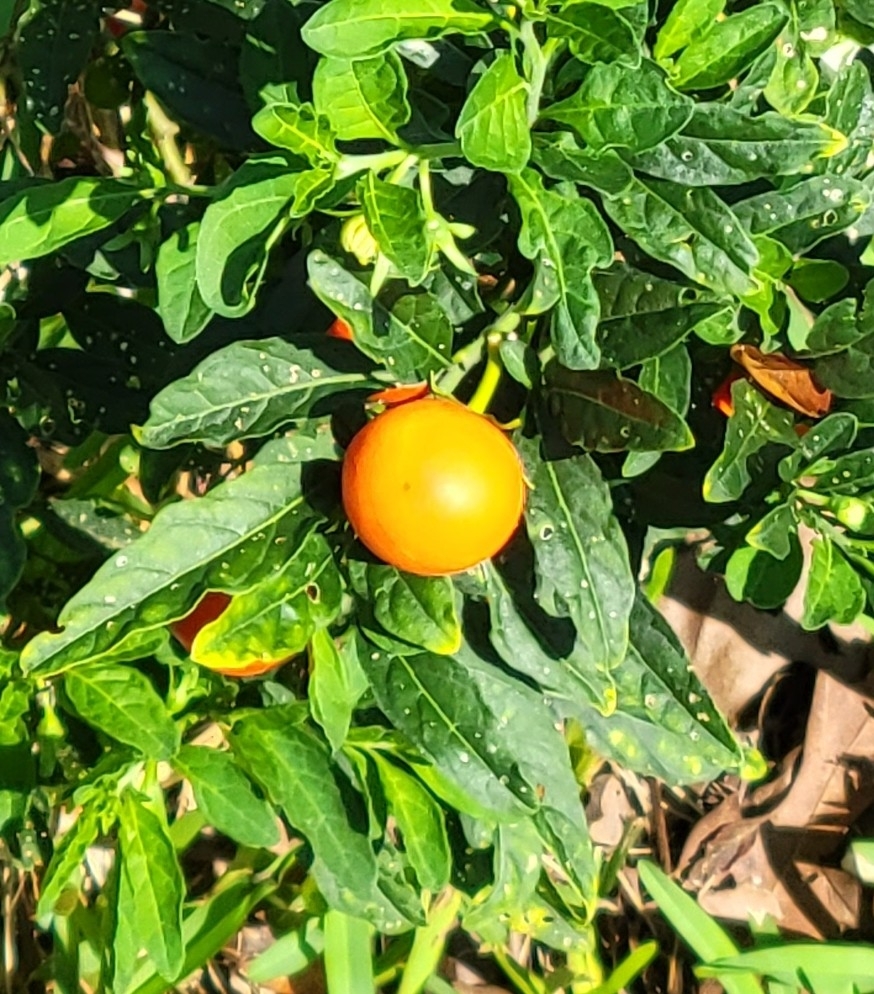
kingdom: Plantae
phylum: Tracheophyta
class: Magnoliopsida
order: Solanales
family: Solanaceae
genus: Solanum
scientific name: Solanum pseudocapsicum
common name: Jerusalem cherry
